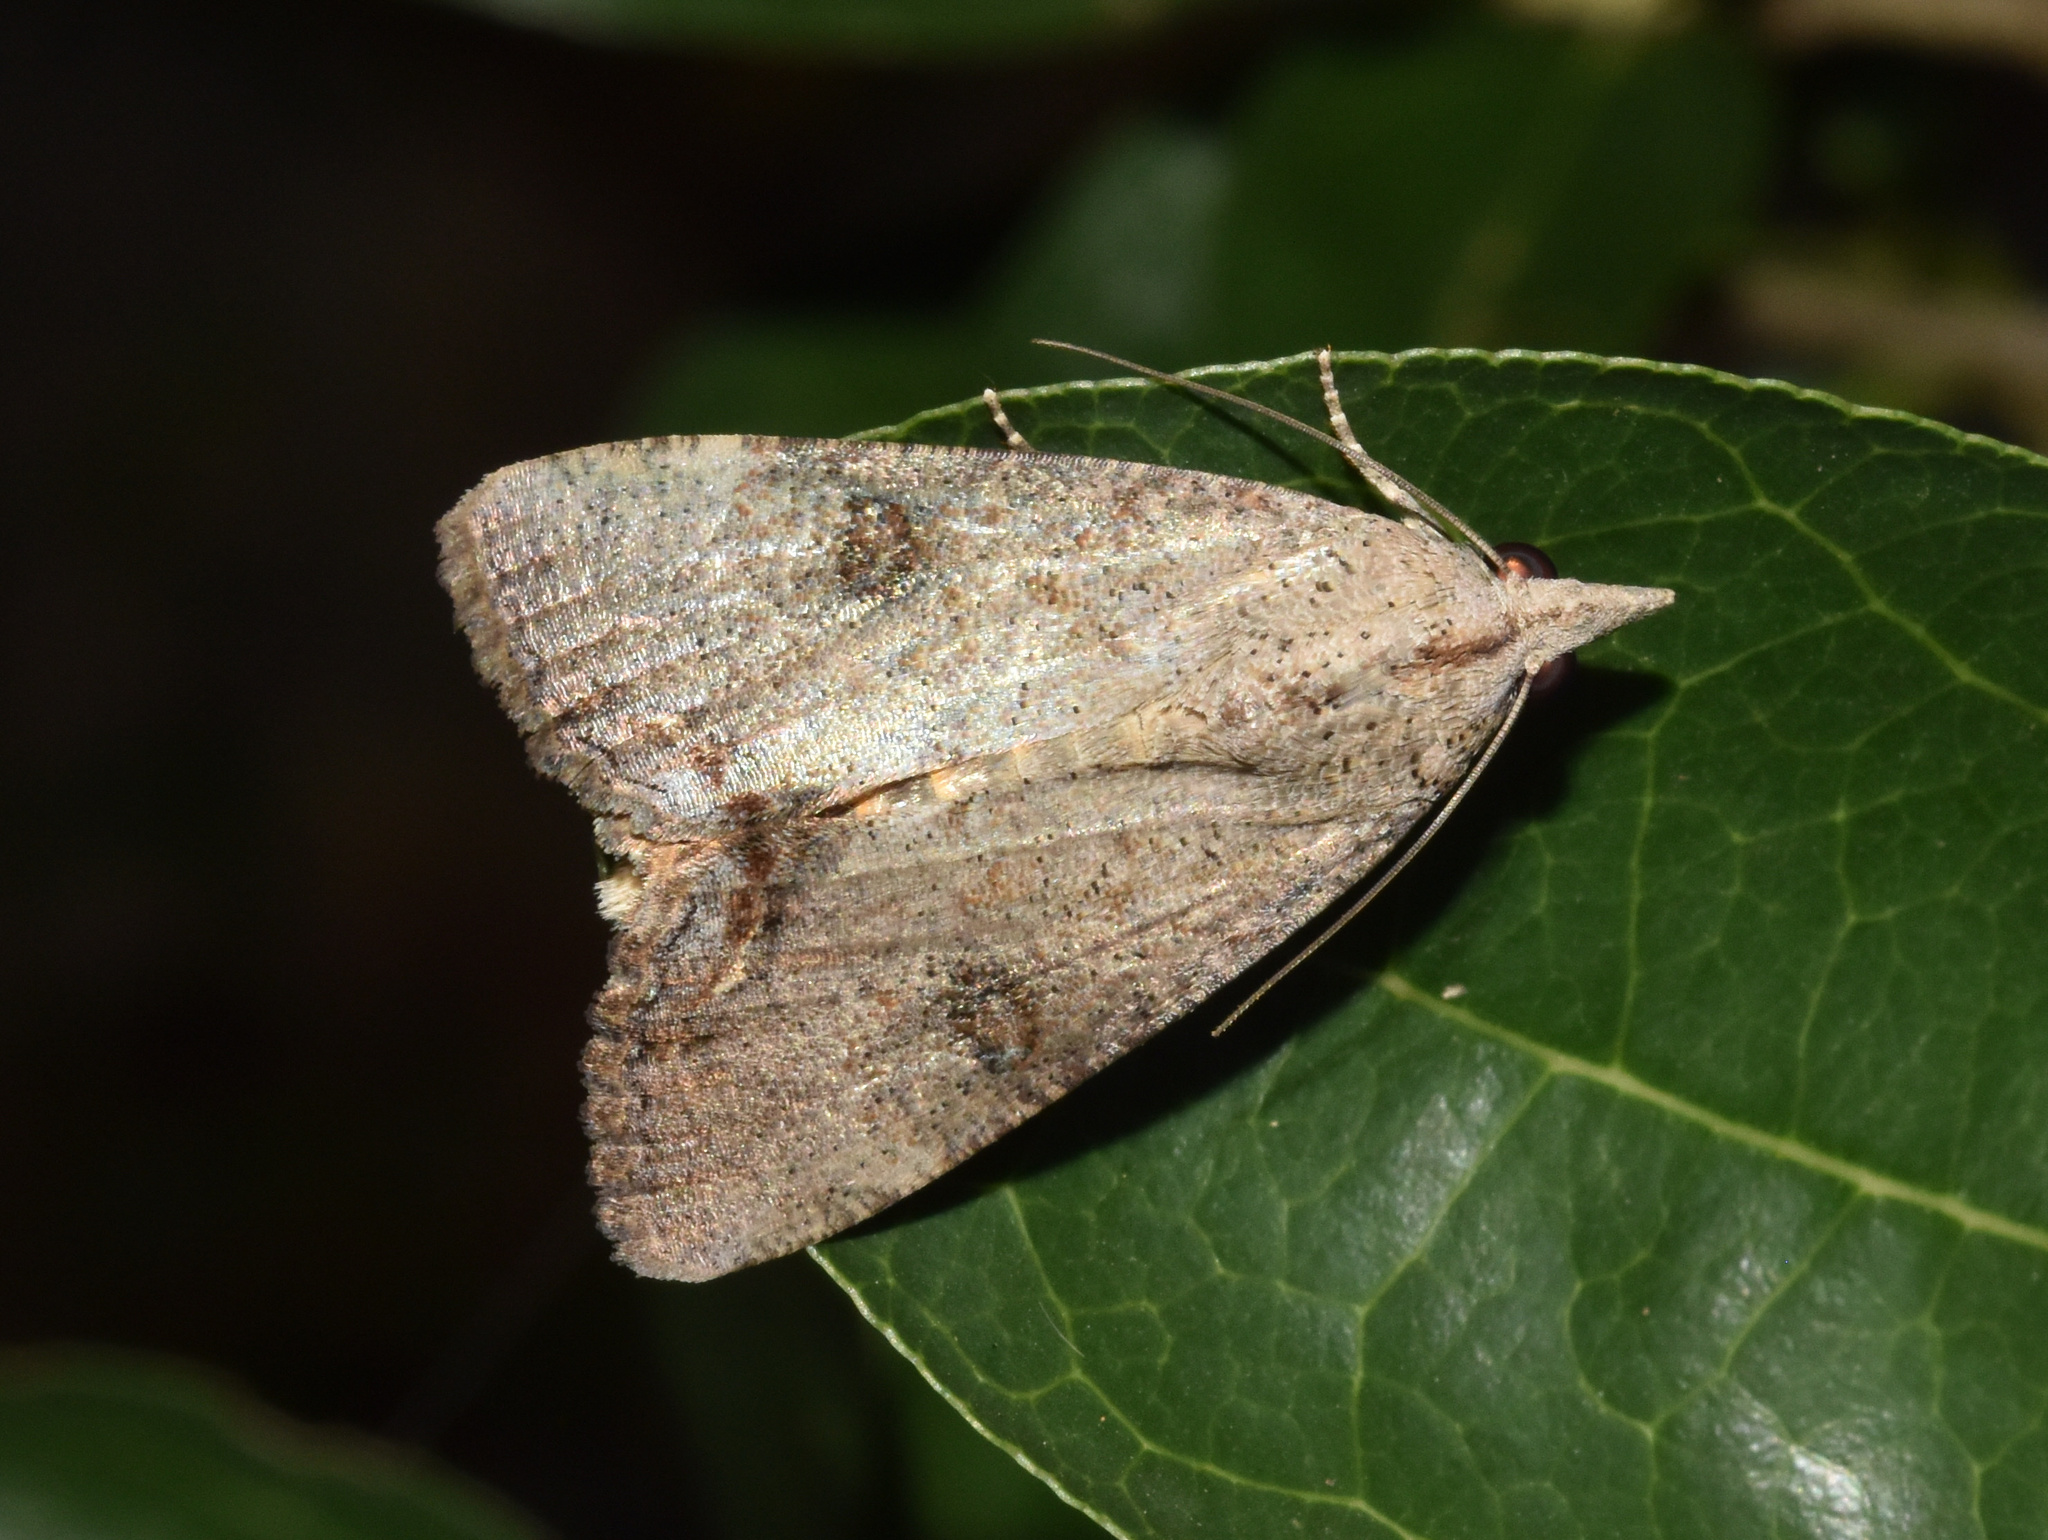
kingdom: Animalia
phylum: Arthropoda
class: Insecta
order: Lepidoptera
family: Erebidae
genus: Hypocala
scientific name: Hypocala deflorata
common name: Moth
